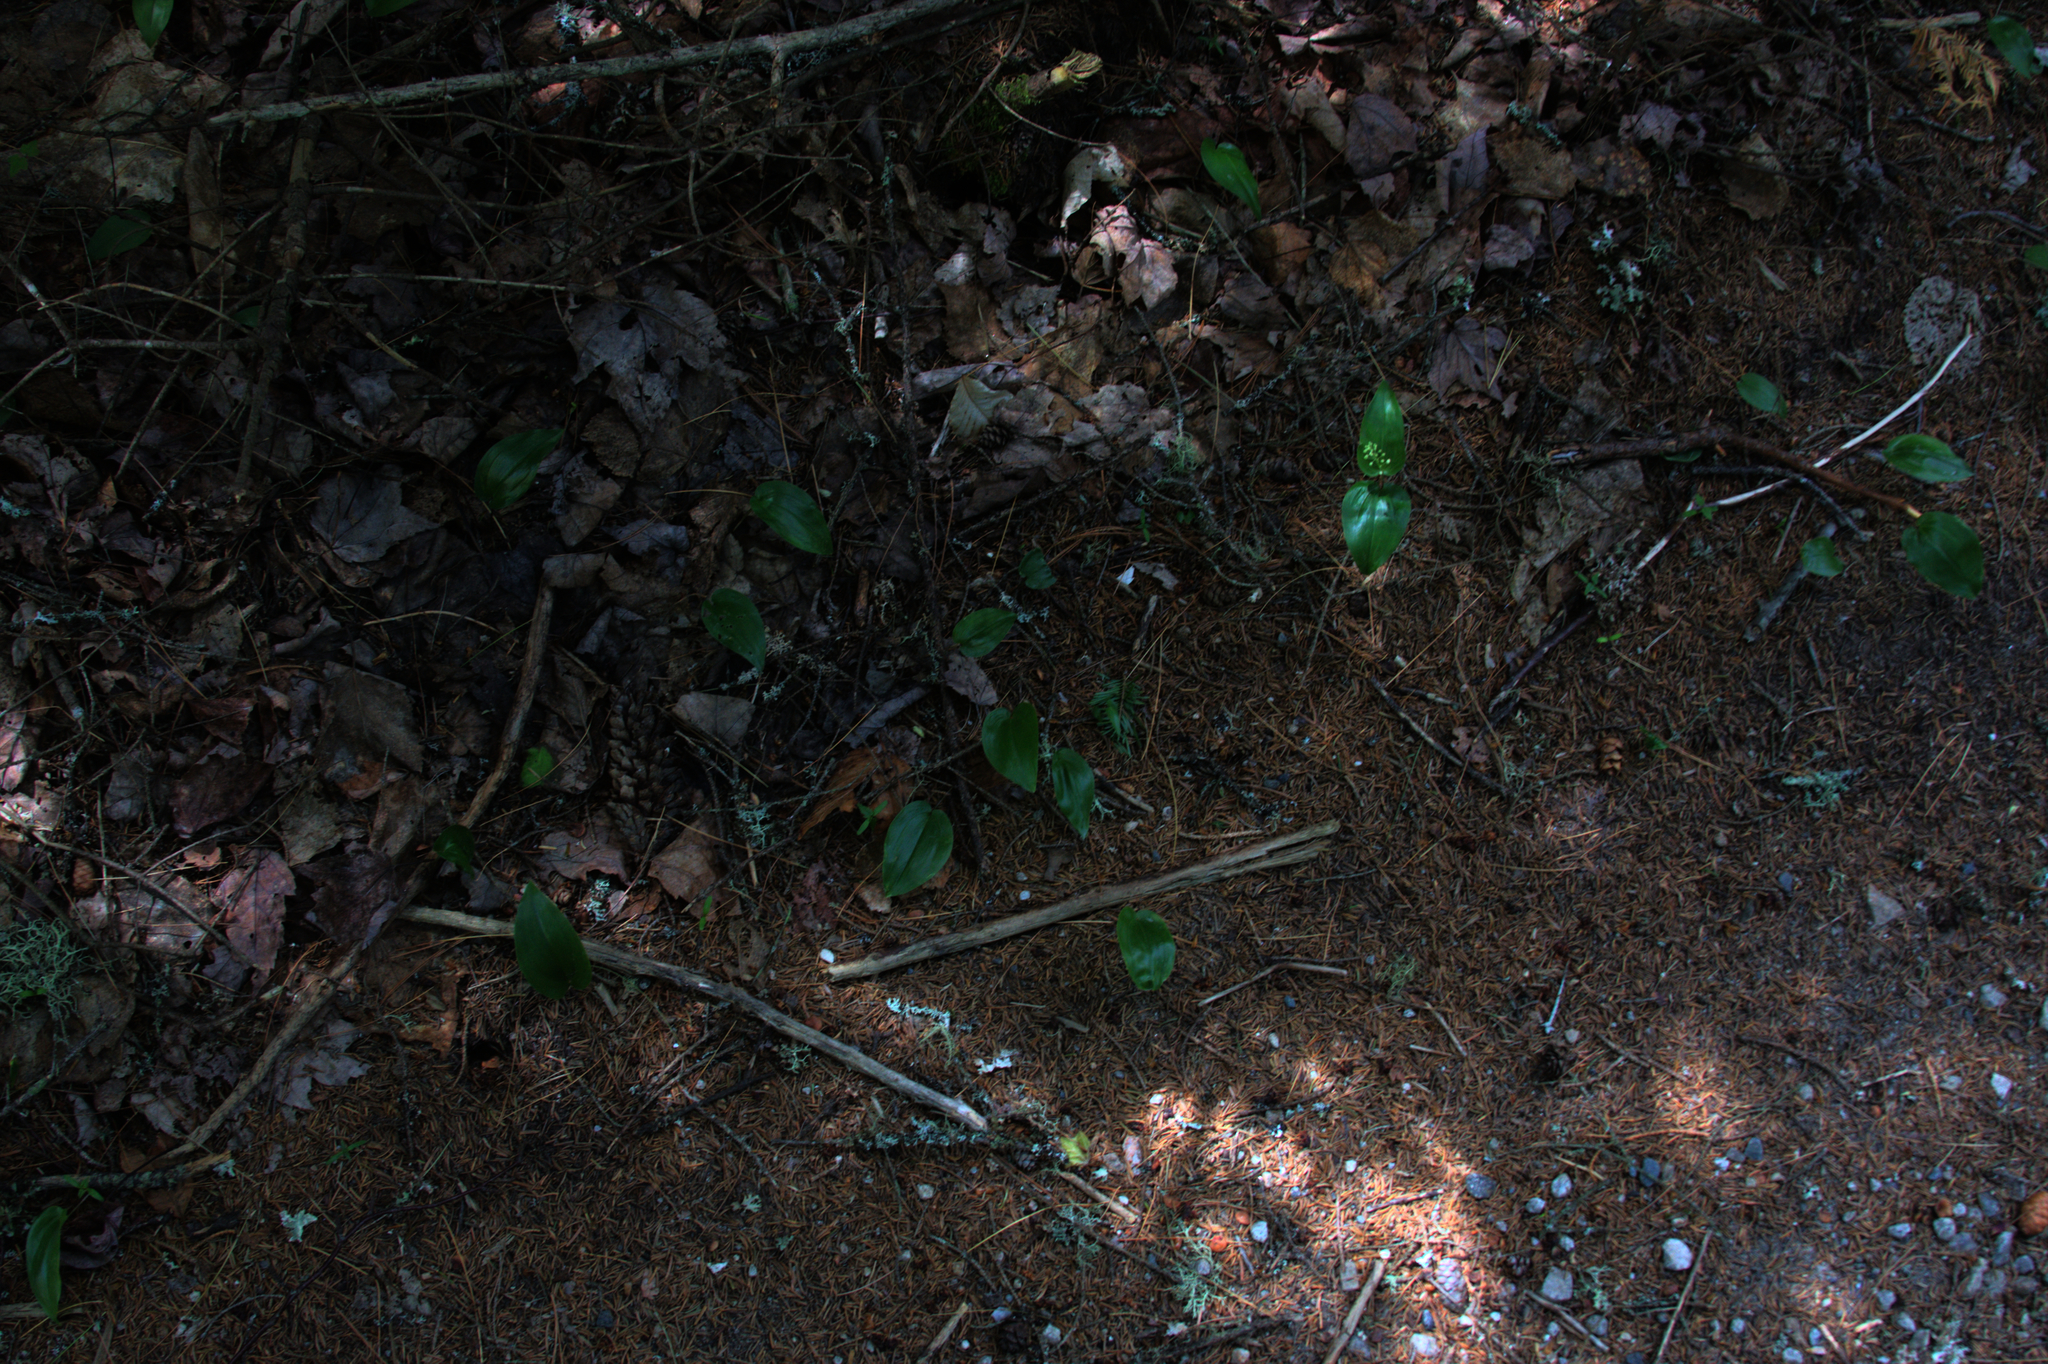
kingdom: Plantae
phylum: Tracheophyta
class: Liliopsida
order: Asparagales
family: Asparagaceae
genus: Maianthemum
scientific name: Maianthemum canadense
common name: False lily-of-the-valley
